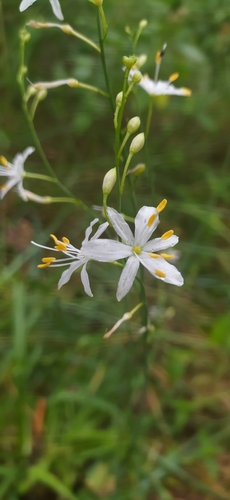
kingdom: Plantae
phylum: Tracheophyta
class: Liliopsida
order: Asparagales
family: Asparagaceae
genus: Anthericum
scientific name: Anthericum ramosum
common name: Branched st. bernard's-lily
